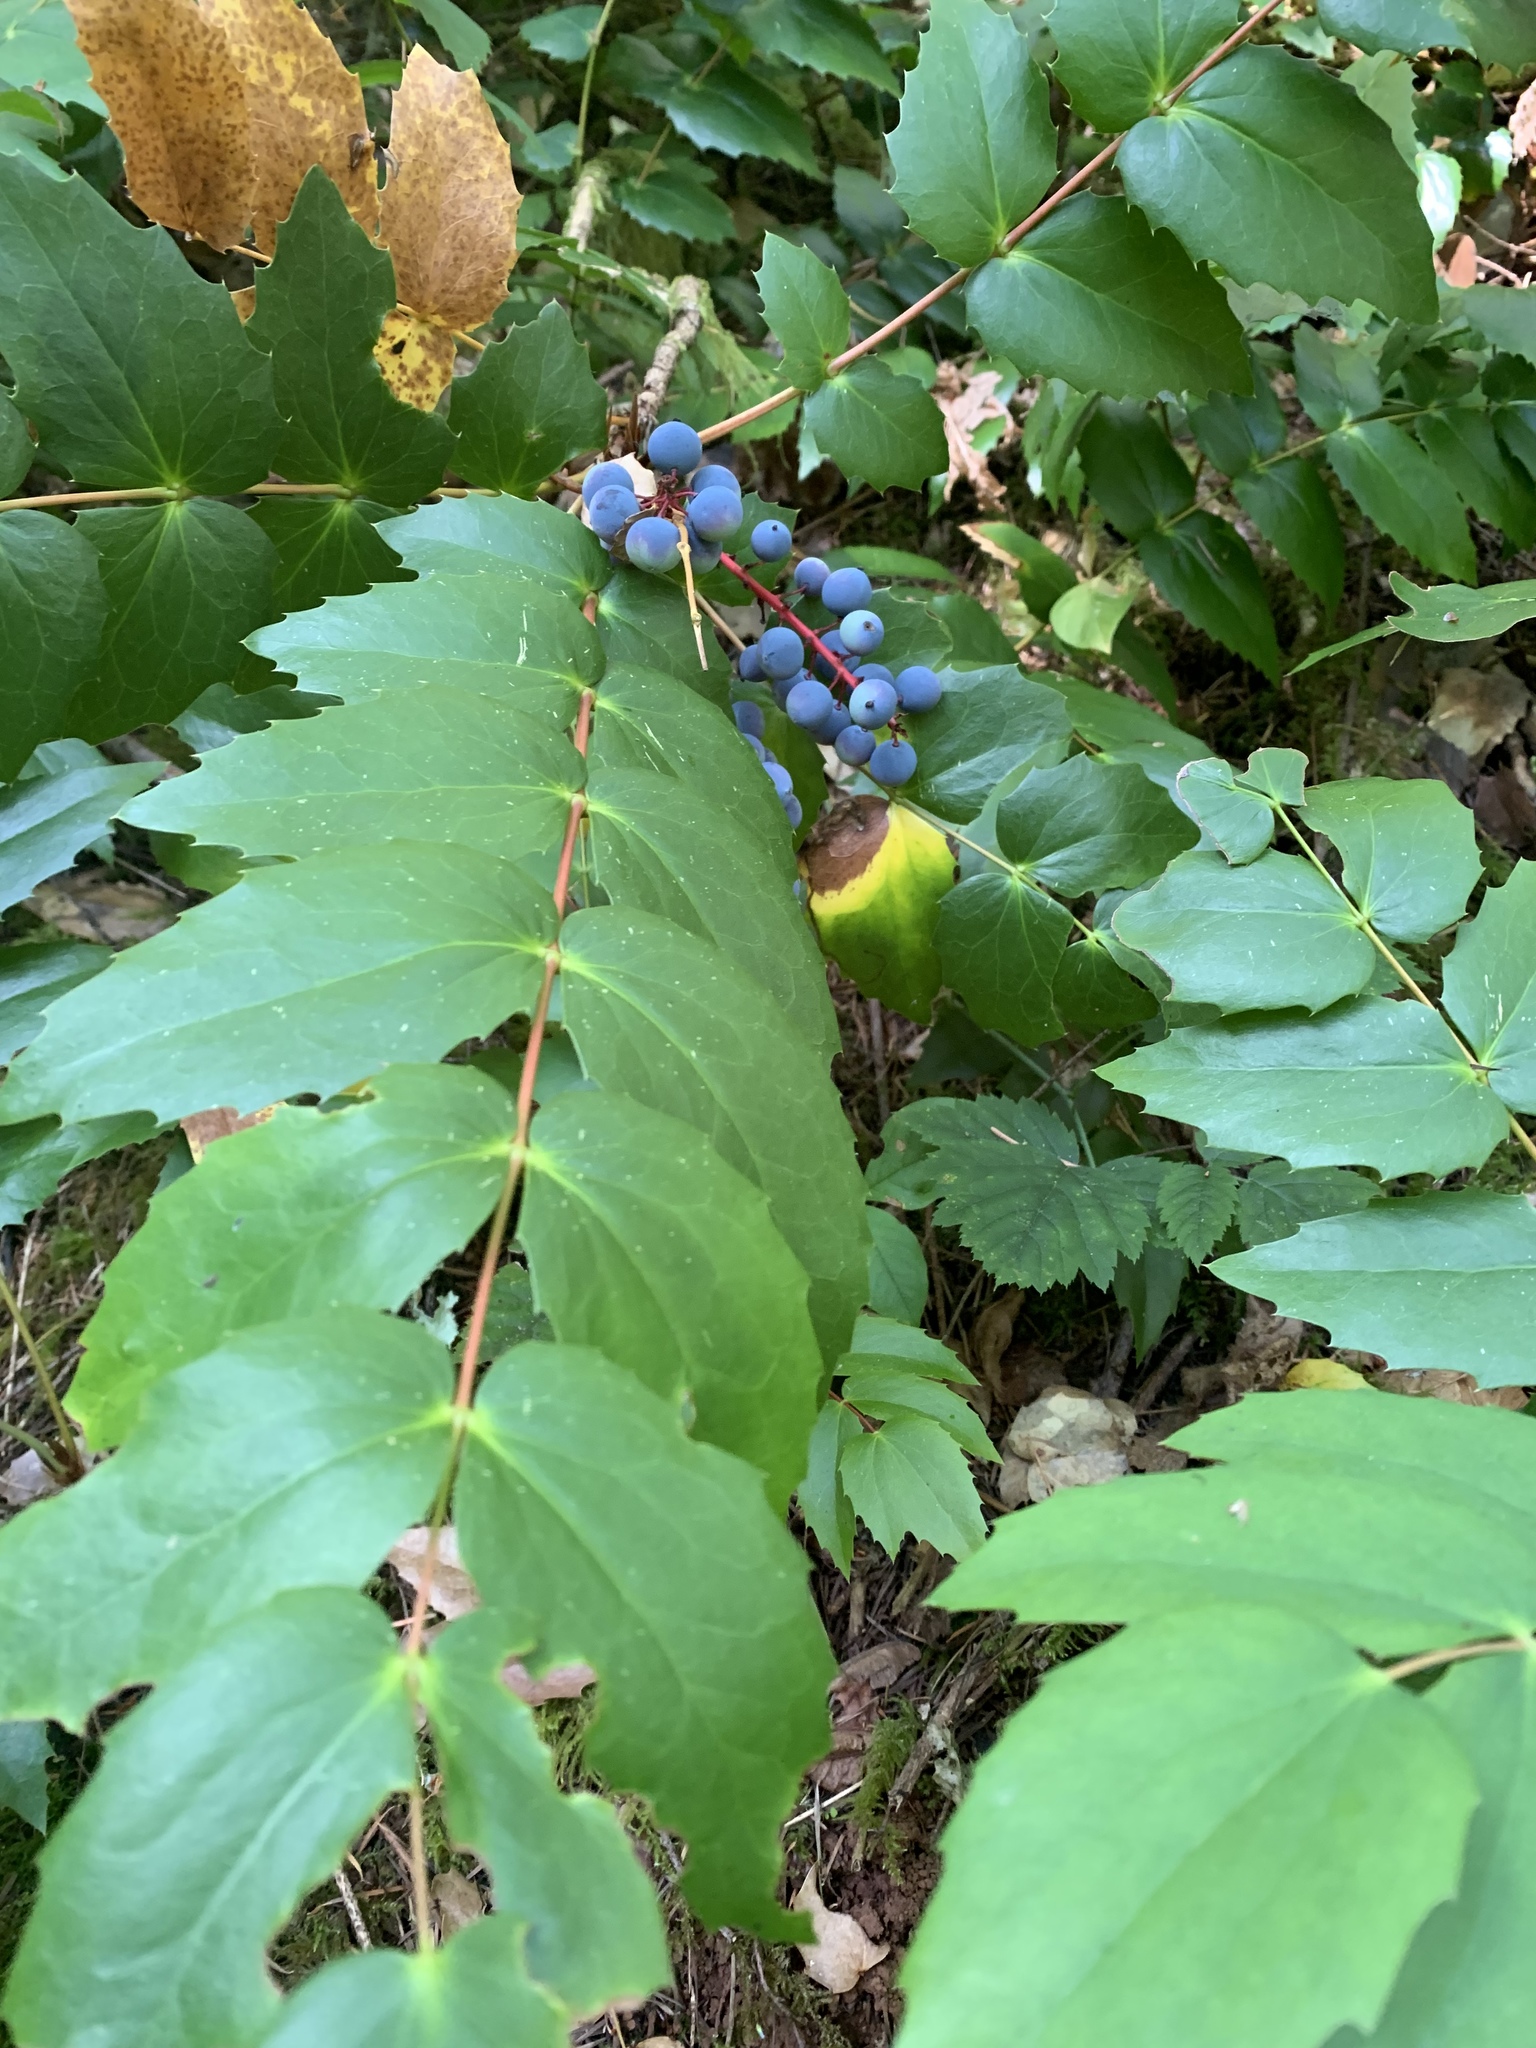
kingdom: Plantae
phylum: Tracheophyta
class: Magnoliopsida
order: Ranunculales
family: Berberidaceae
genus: Mahonia
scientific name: Mahonia nervosa
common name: Cascade oregon-grape
